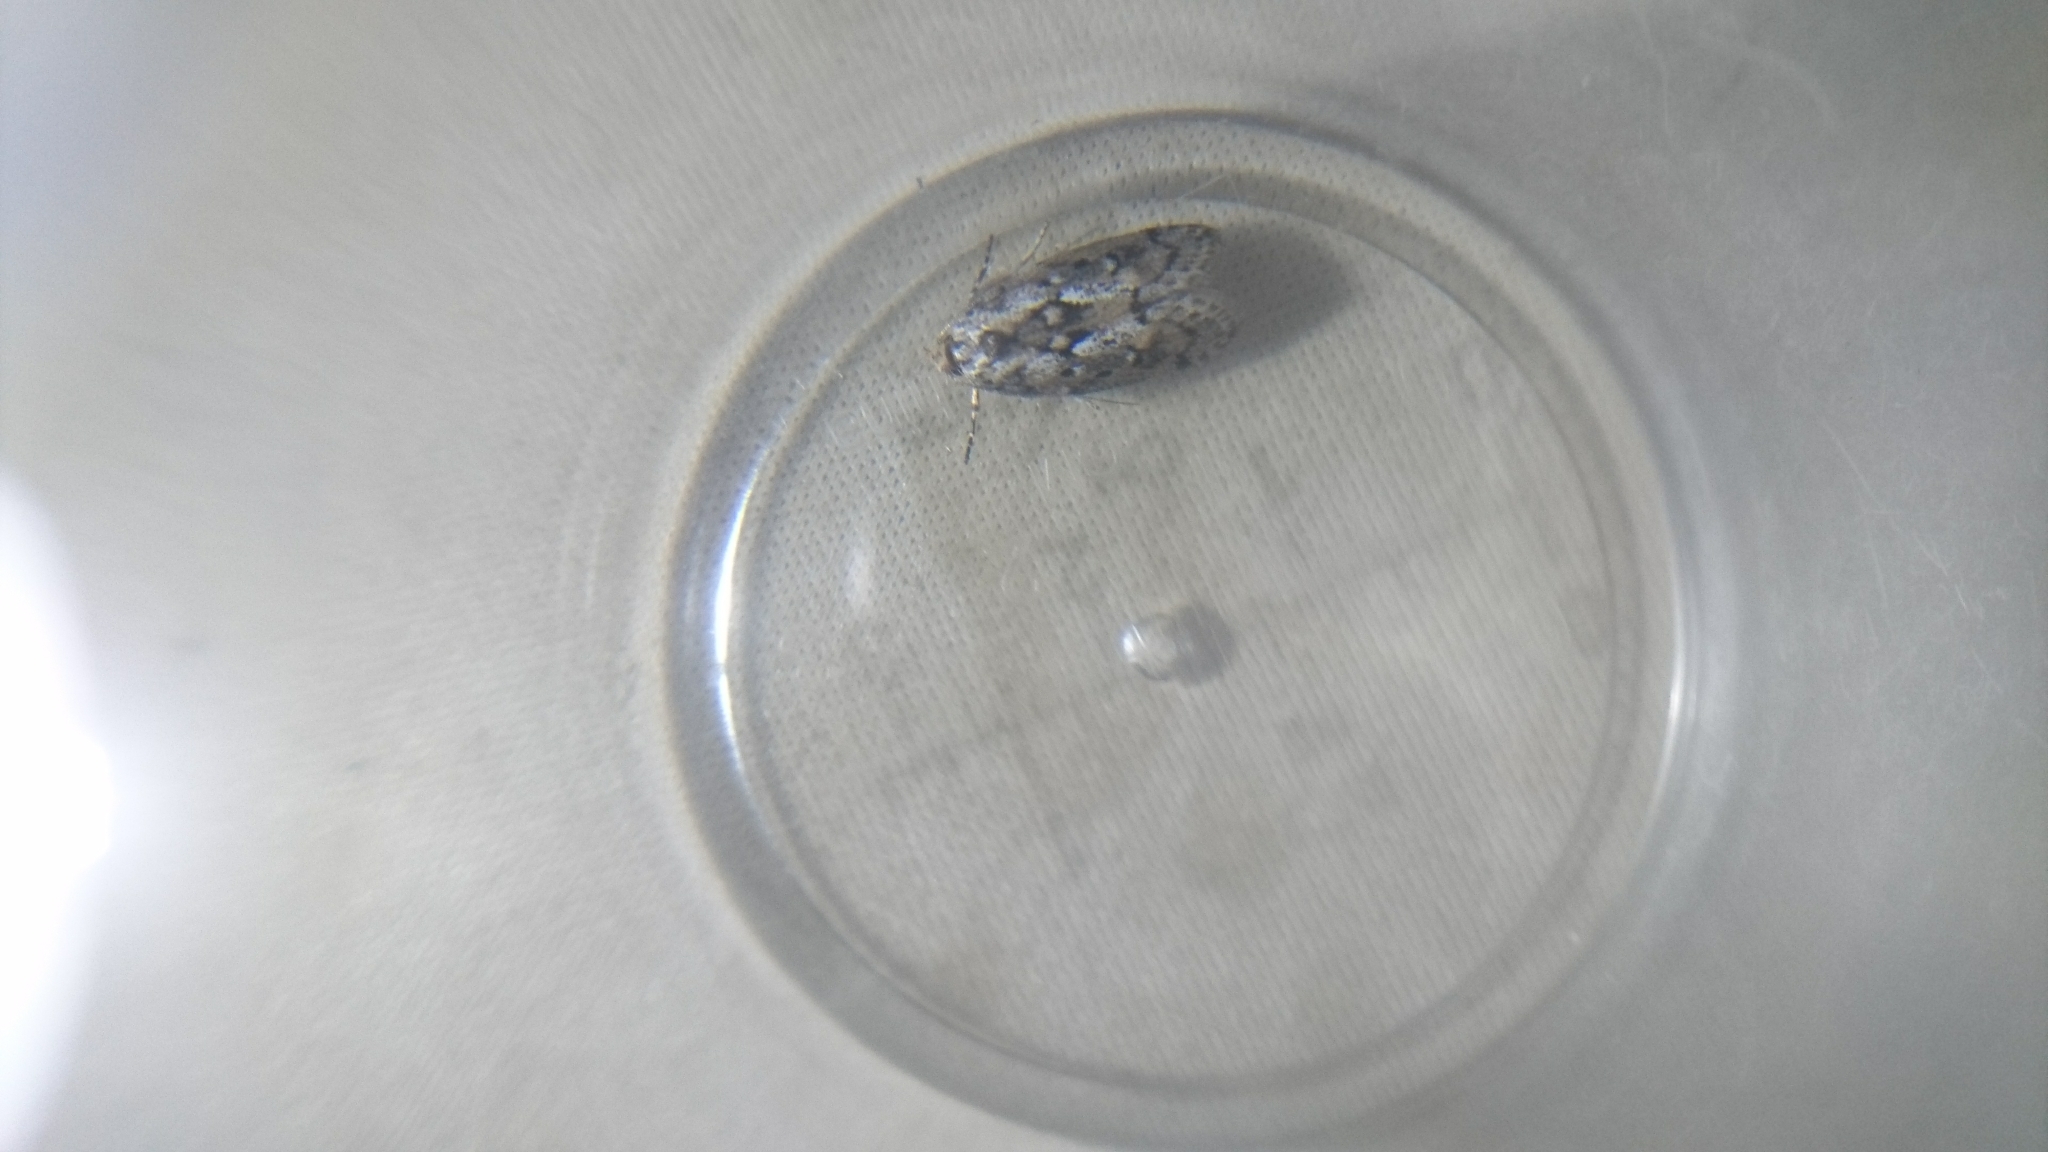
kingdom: Animalia
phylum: Arthropoda
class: Insecta
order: Lepidoptera
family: Oecophoridae
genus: Philobota
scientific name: Philobota
